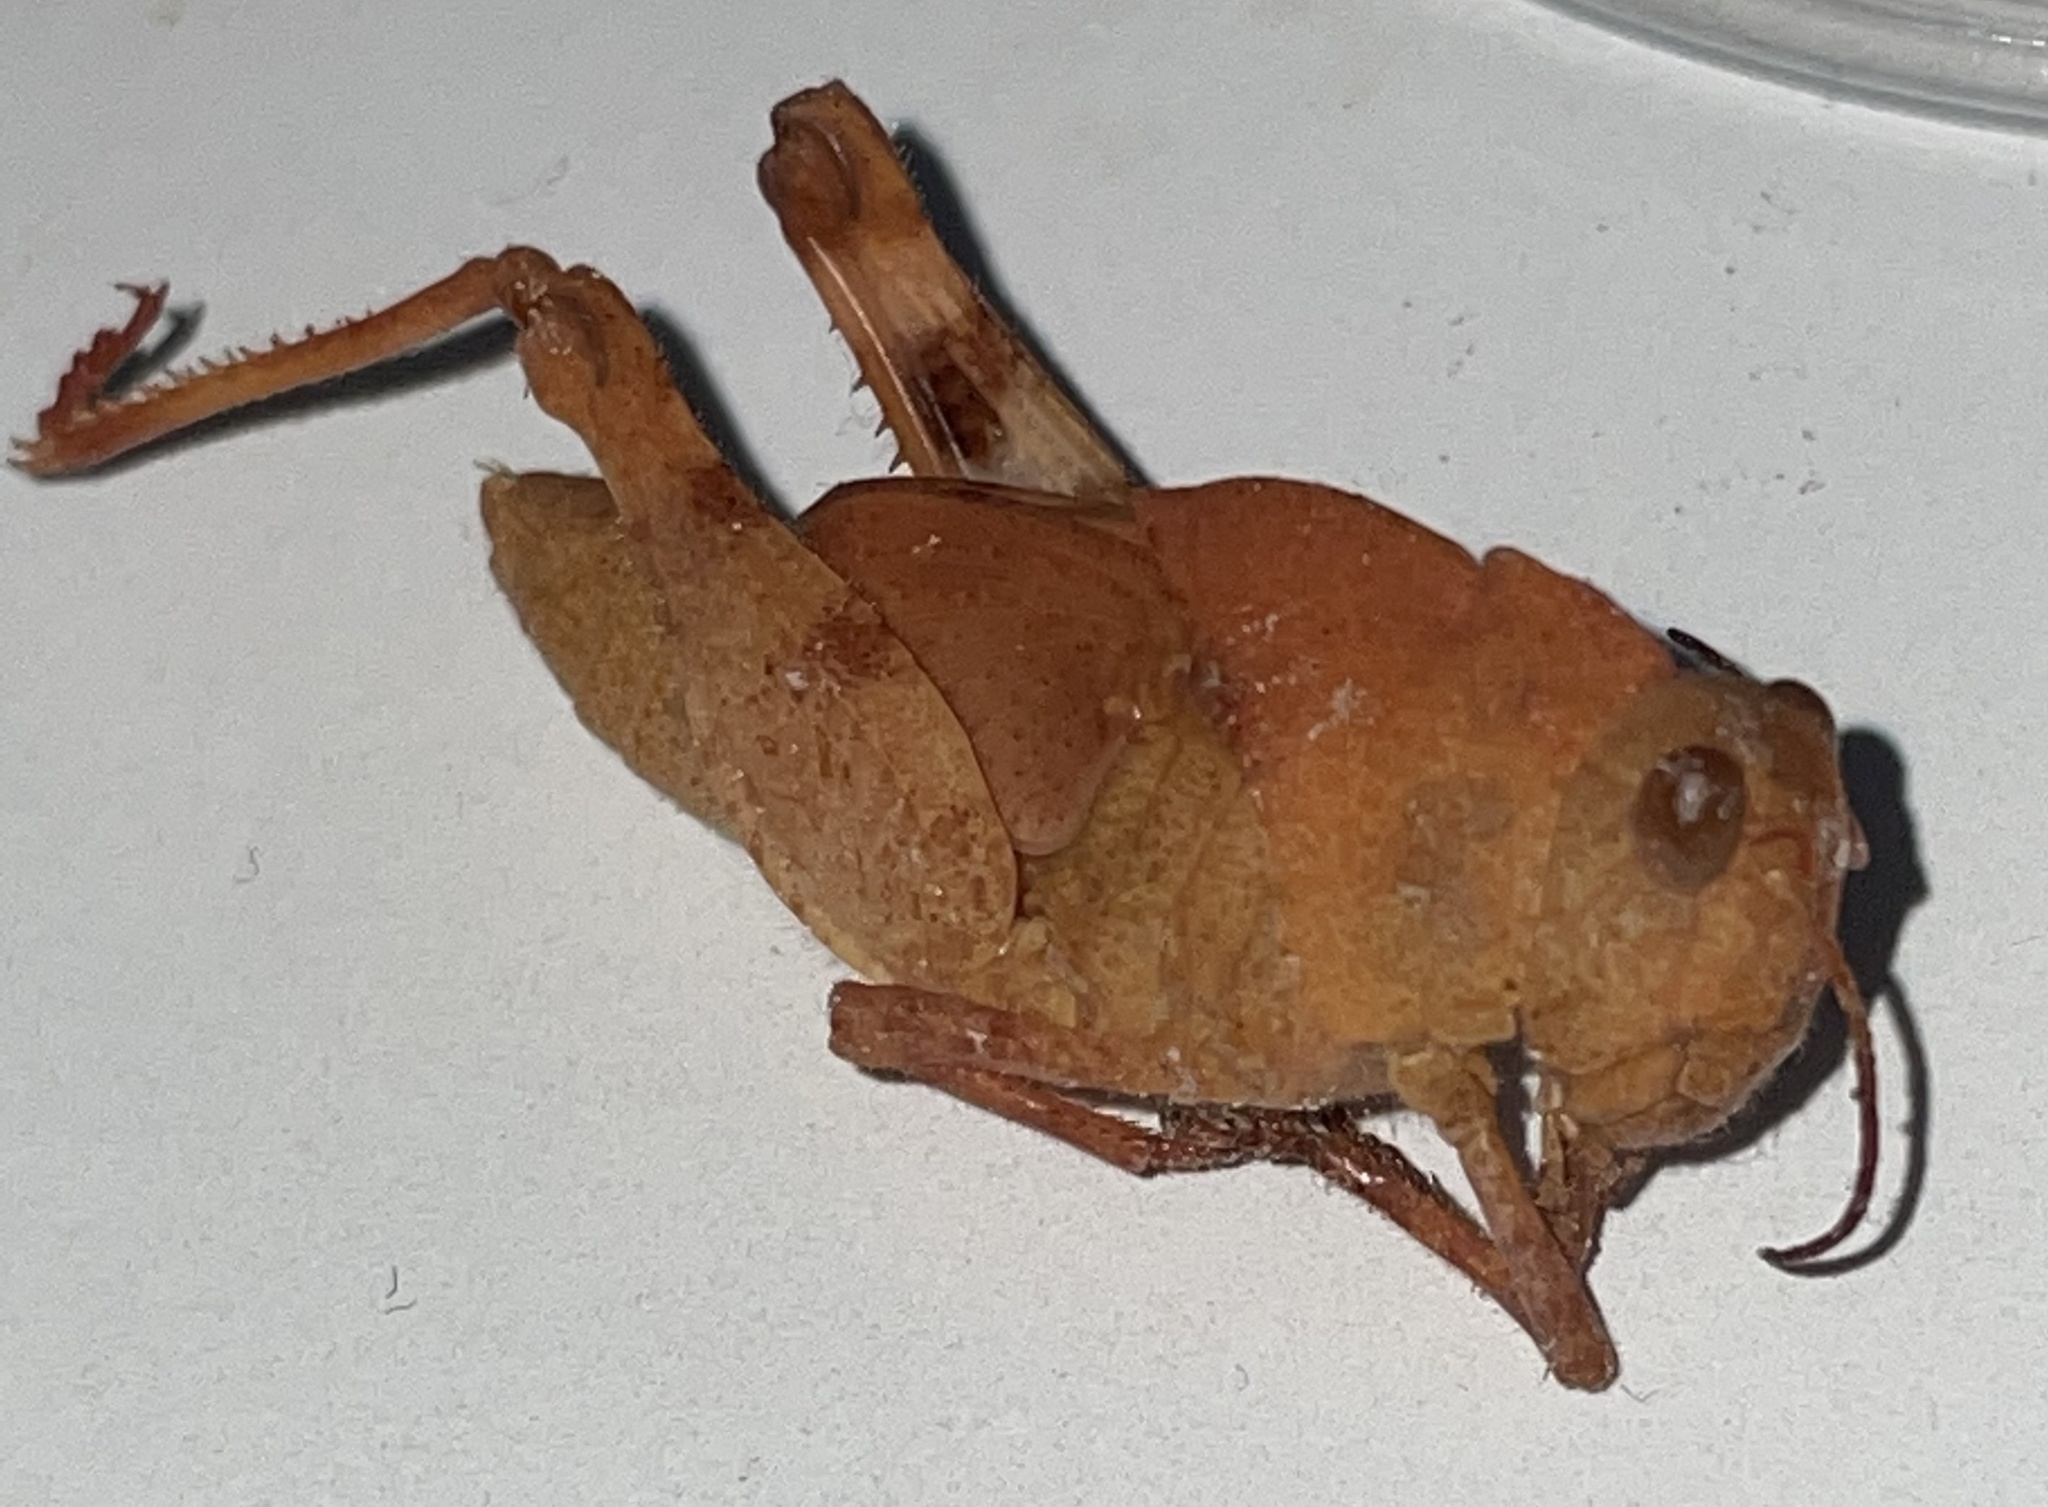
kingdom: Animalia
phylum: Arthropoda
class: Insecta
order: Orthoptera
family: Acrididae
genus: Dissosteira
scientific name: Dissosteira carolina
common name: Carolina grasshopper
